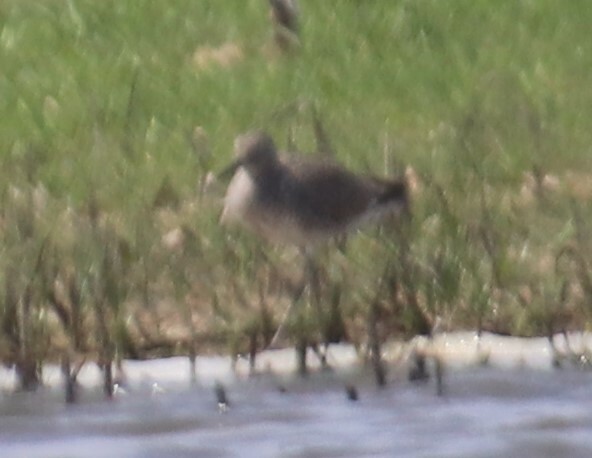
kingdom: Animalia
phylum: Chordata
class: Aves
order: Charadriiformes
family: Scolopacidae
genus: Tringa
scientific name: Tringa semipalmata
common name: Willet
